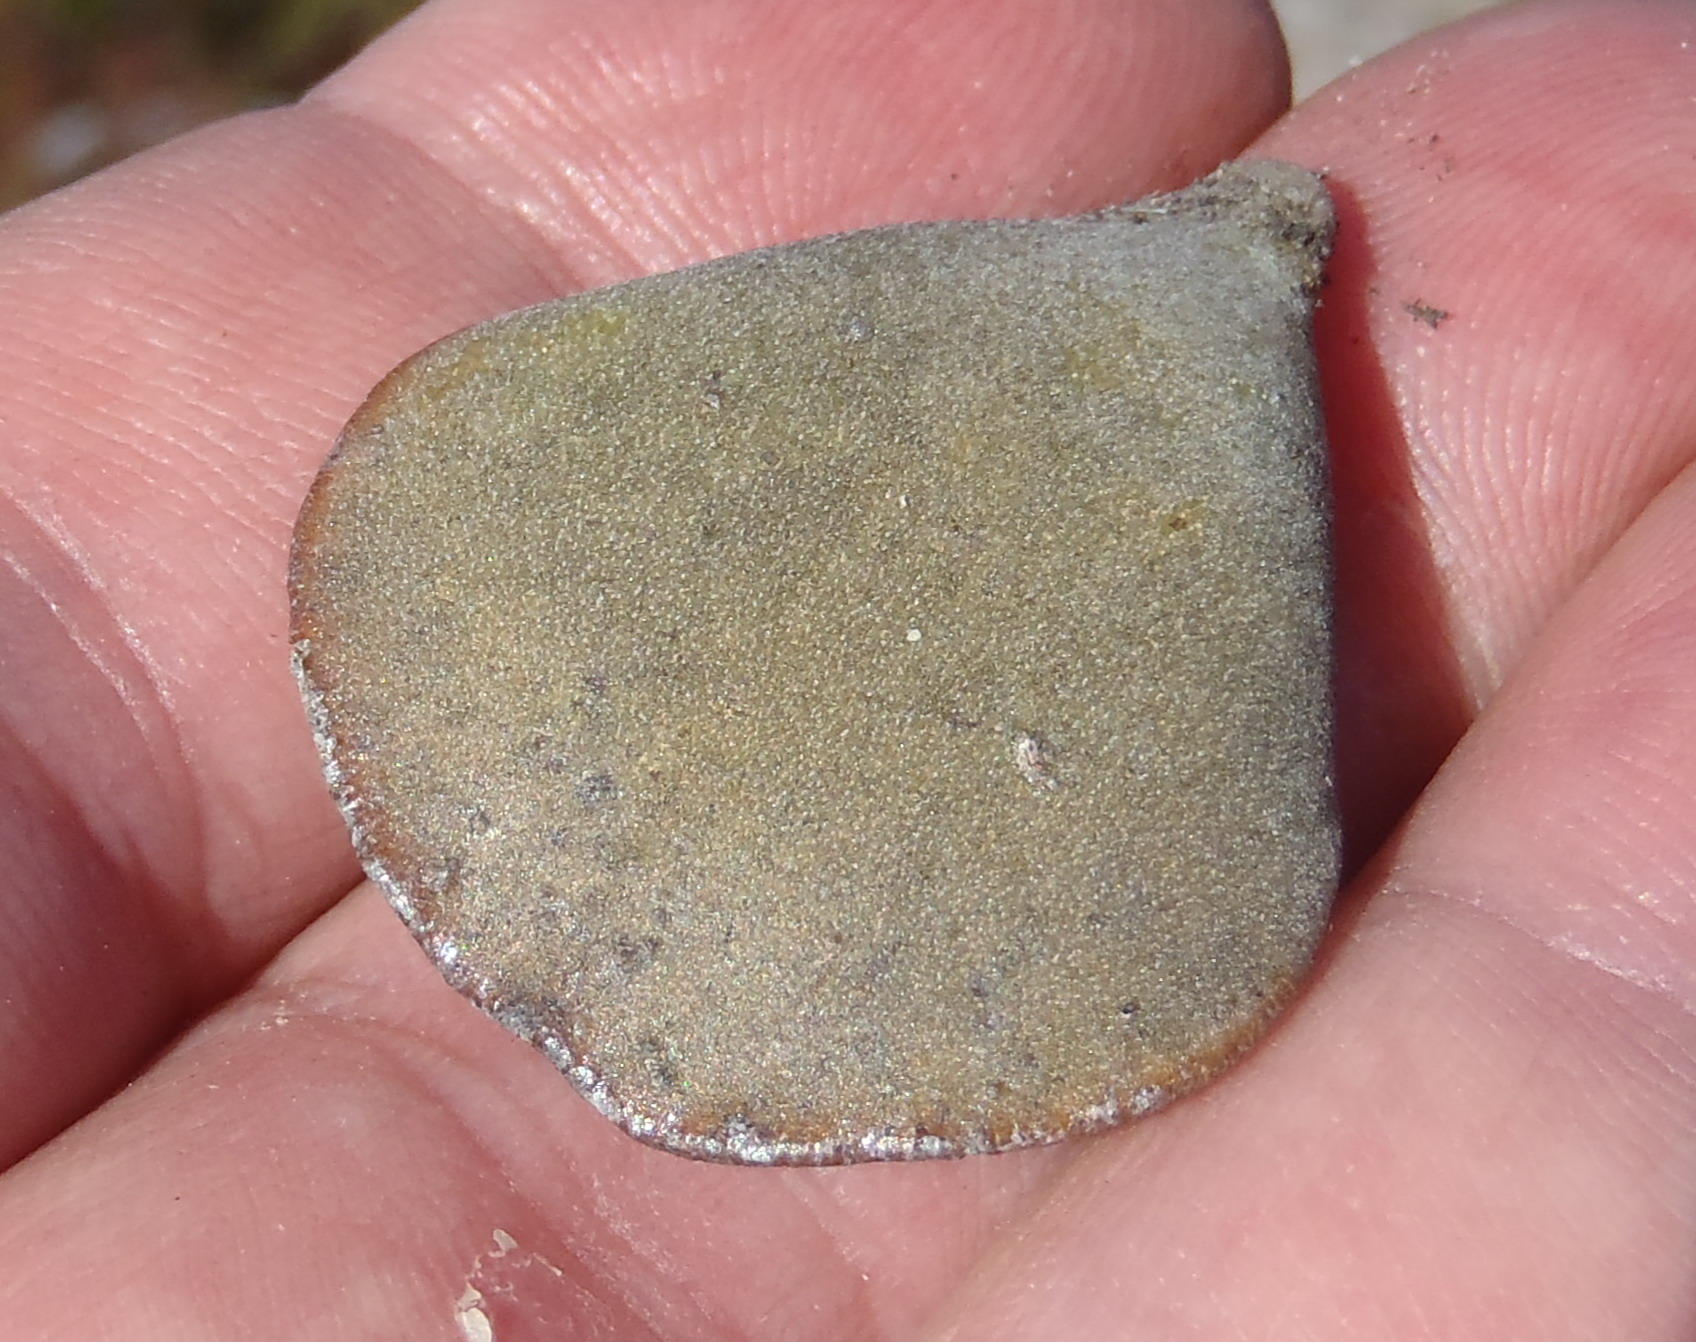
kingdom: Plantae
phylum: Tracheophyta
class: Magnoliopsida
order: Saxifragales
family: Crassulaceae
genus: Adromischus
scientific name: Adromischus inamoenus
